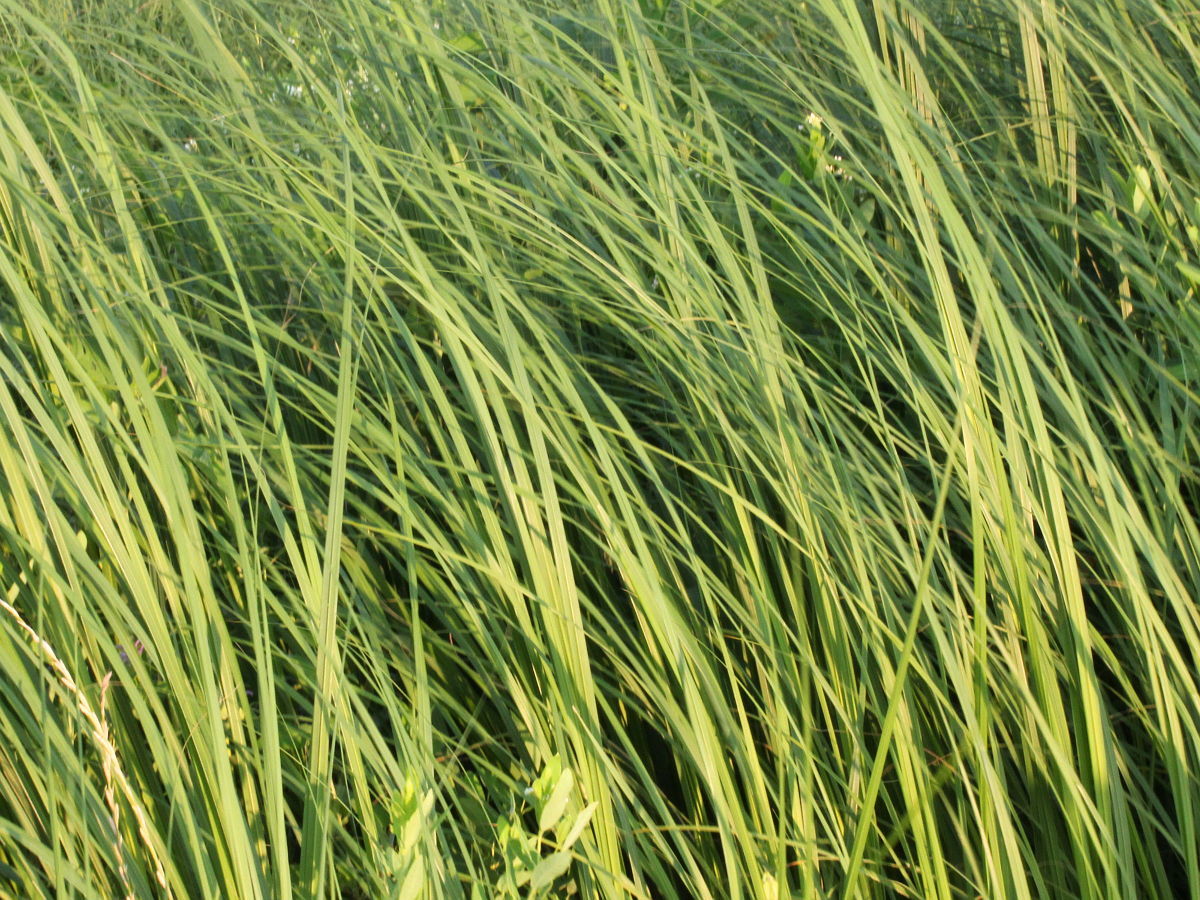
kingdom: Plantae
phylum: Tracheophyta
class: Liliopsida
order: Poales
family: Poaceae
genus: Sporobolus
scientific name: Sporobolus michauxianus
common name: Freshwater cordgrass
